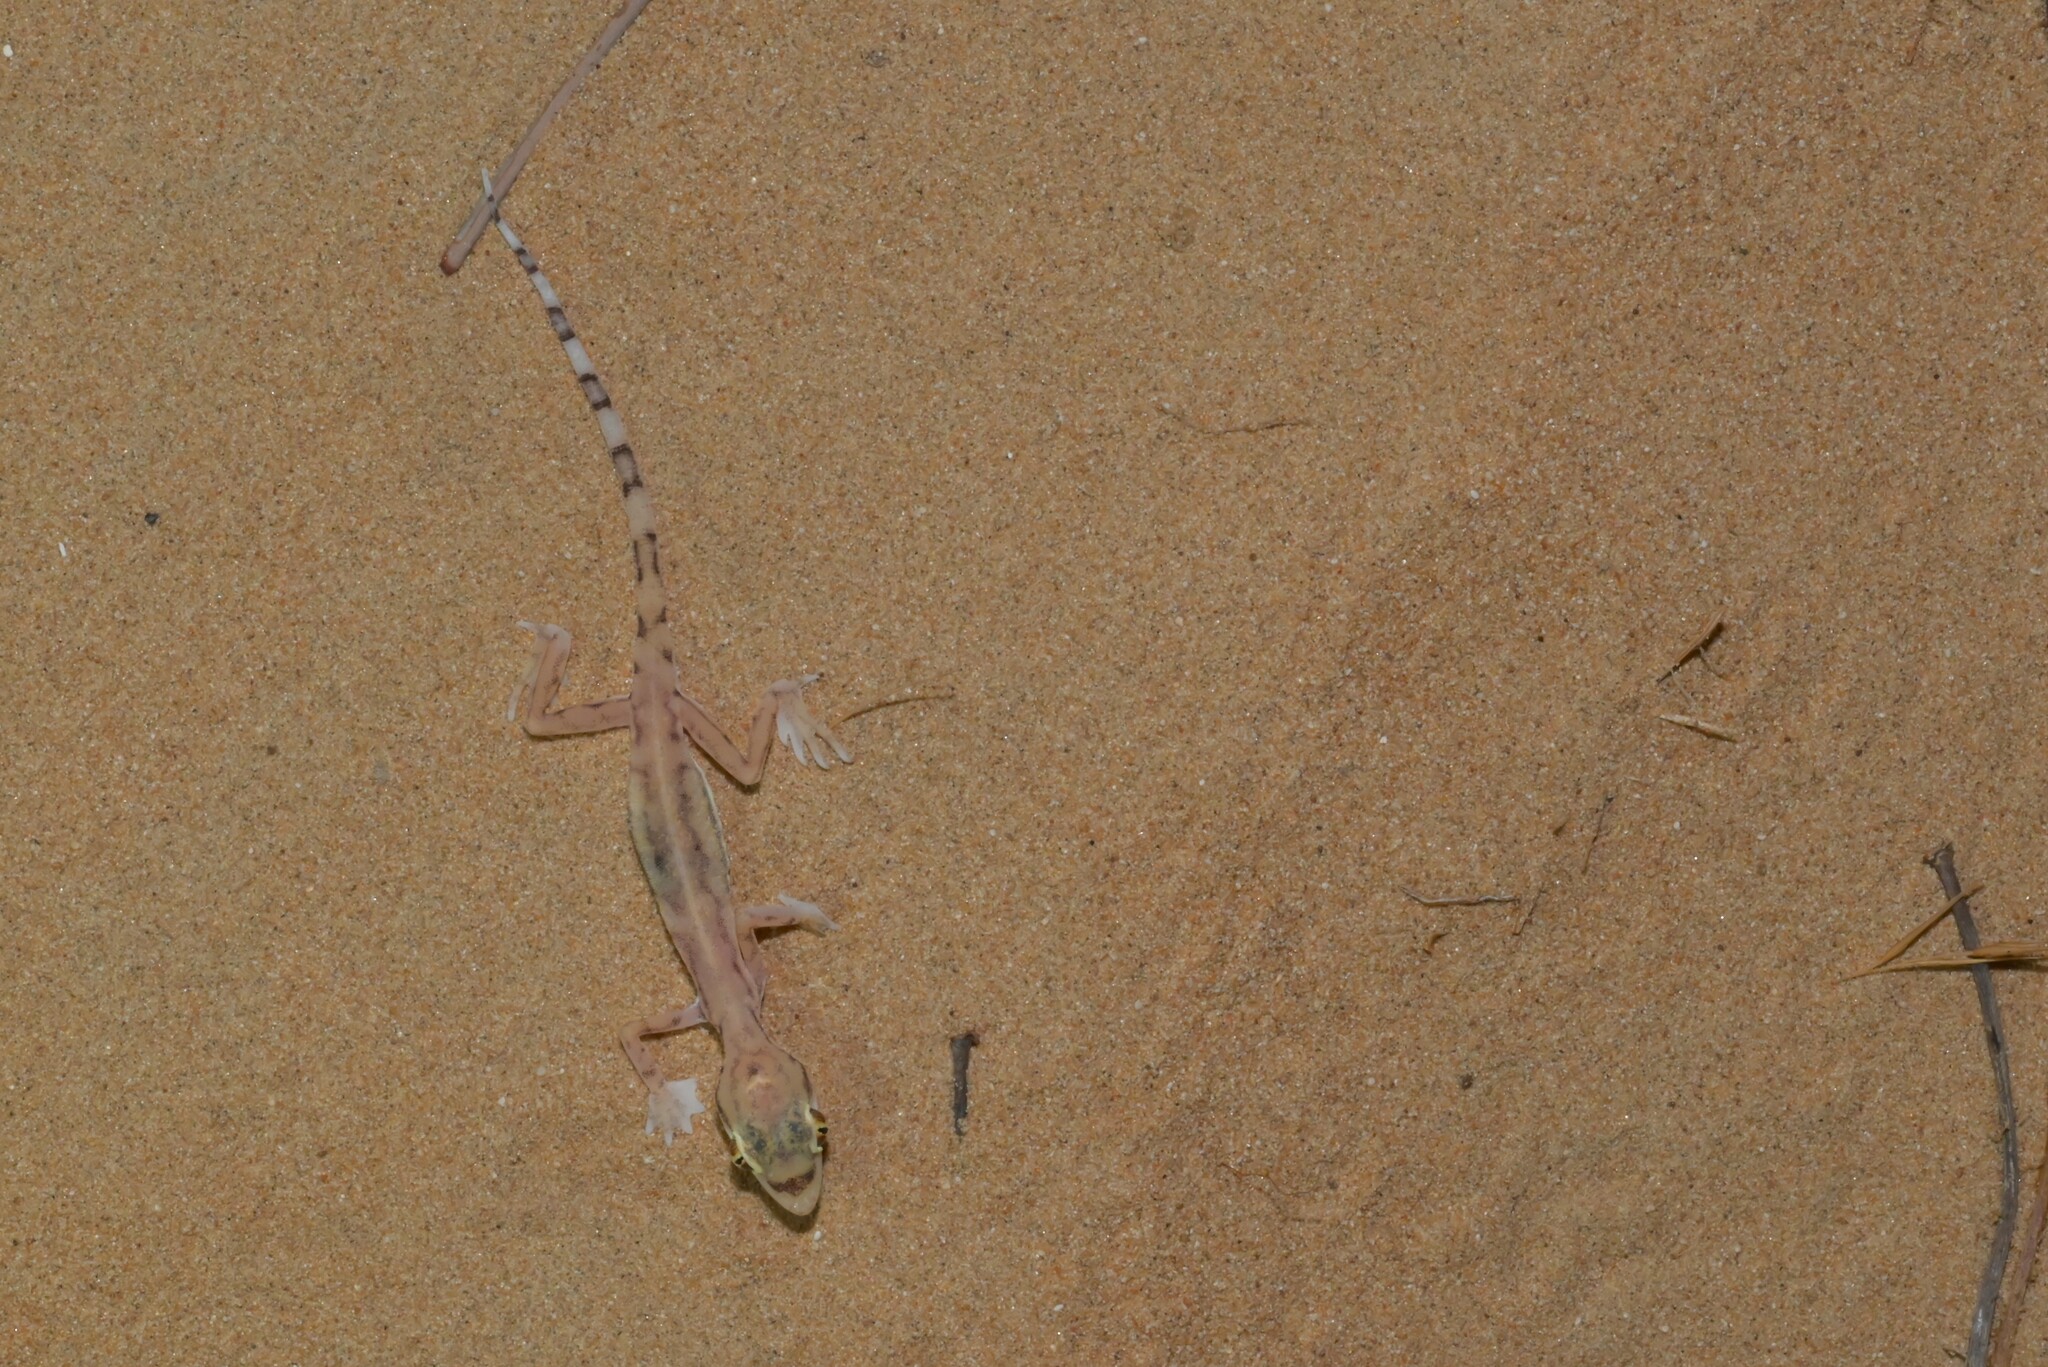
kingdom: Animalia
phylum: Chordata
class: Squamata
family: Gekkonidae
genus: Trigonodactylus
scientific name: Trigonodactylus arabicus
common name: Arabian sand gecko
